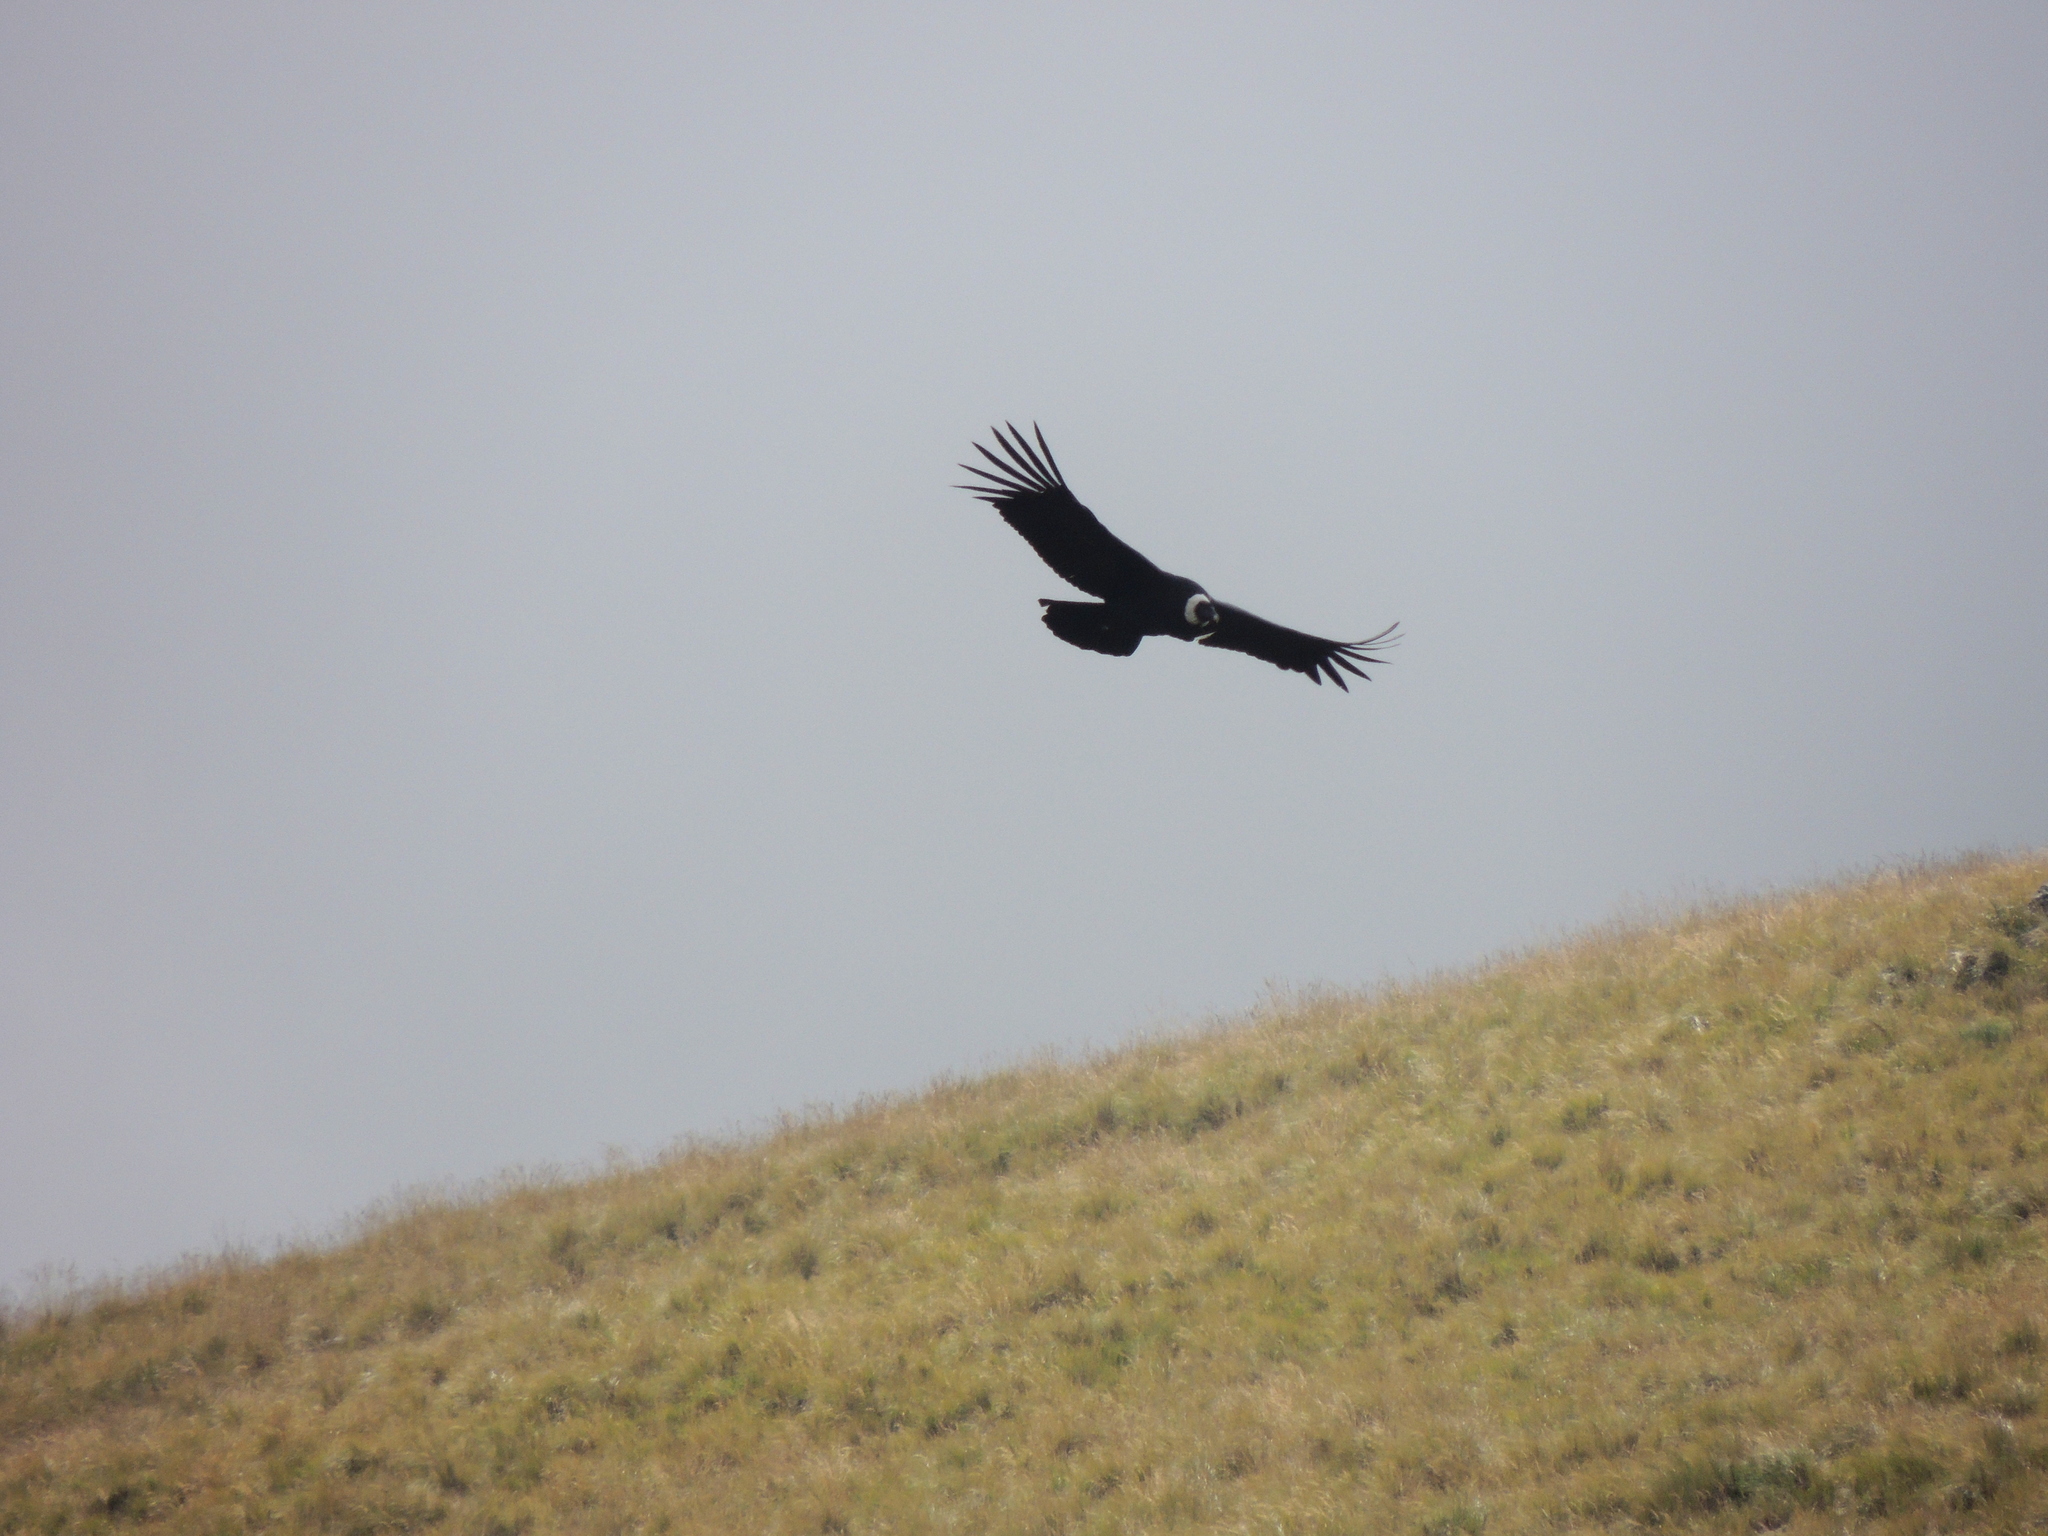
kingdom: Animalia
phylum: Chordata
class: Aves
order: Accipitriformes
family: Cathartidae
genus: Vultur
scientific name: Vultur gryphus
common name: Andean condor
